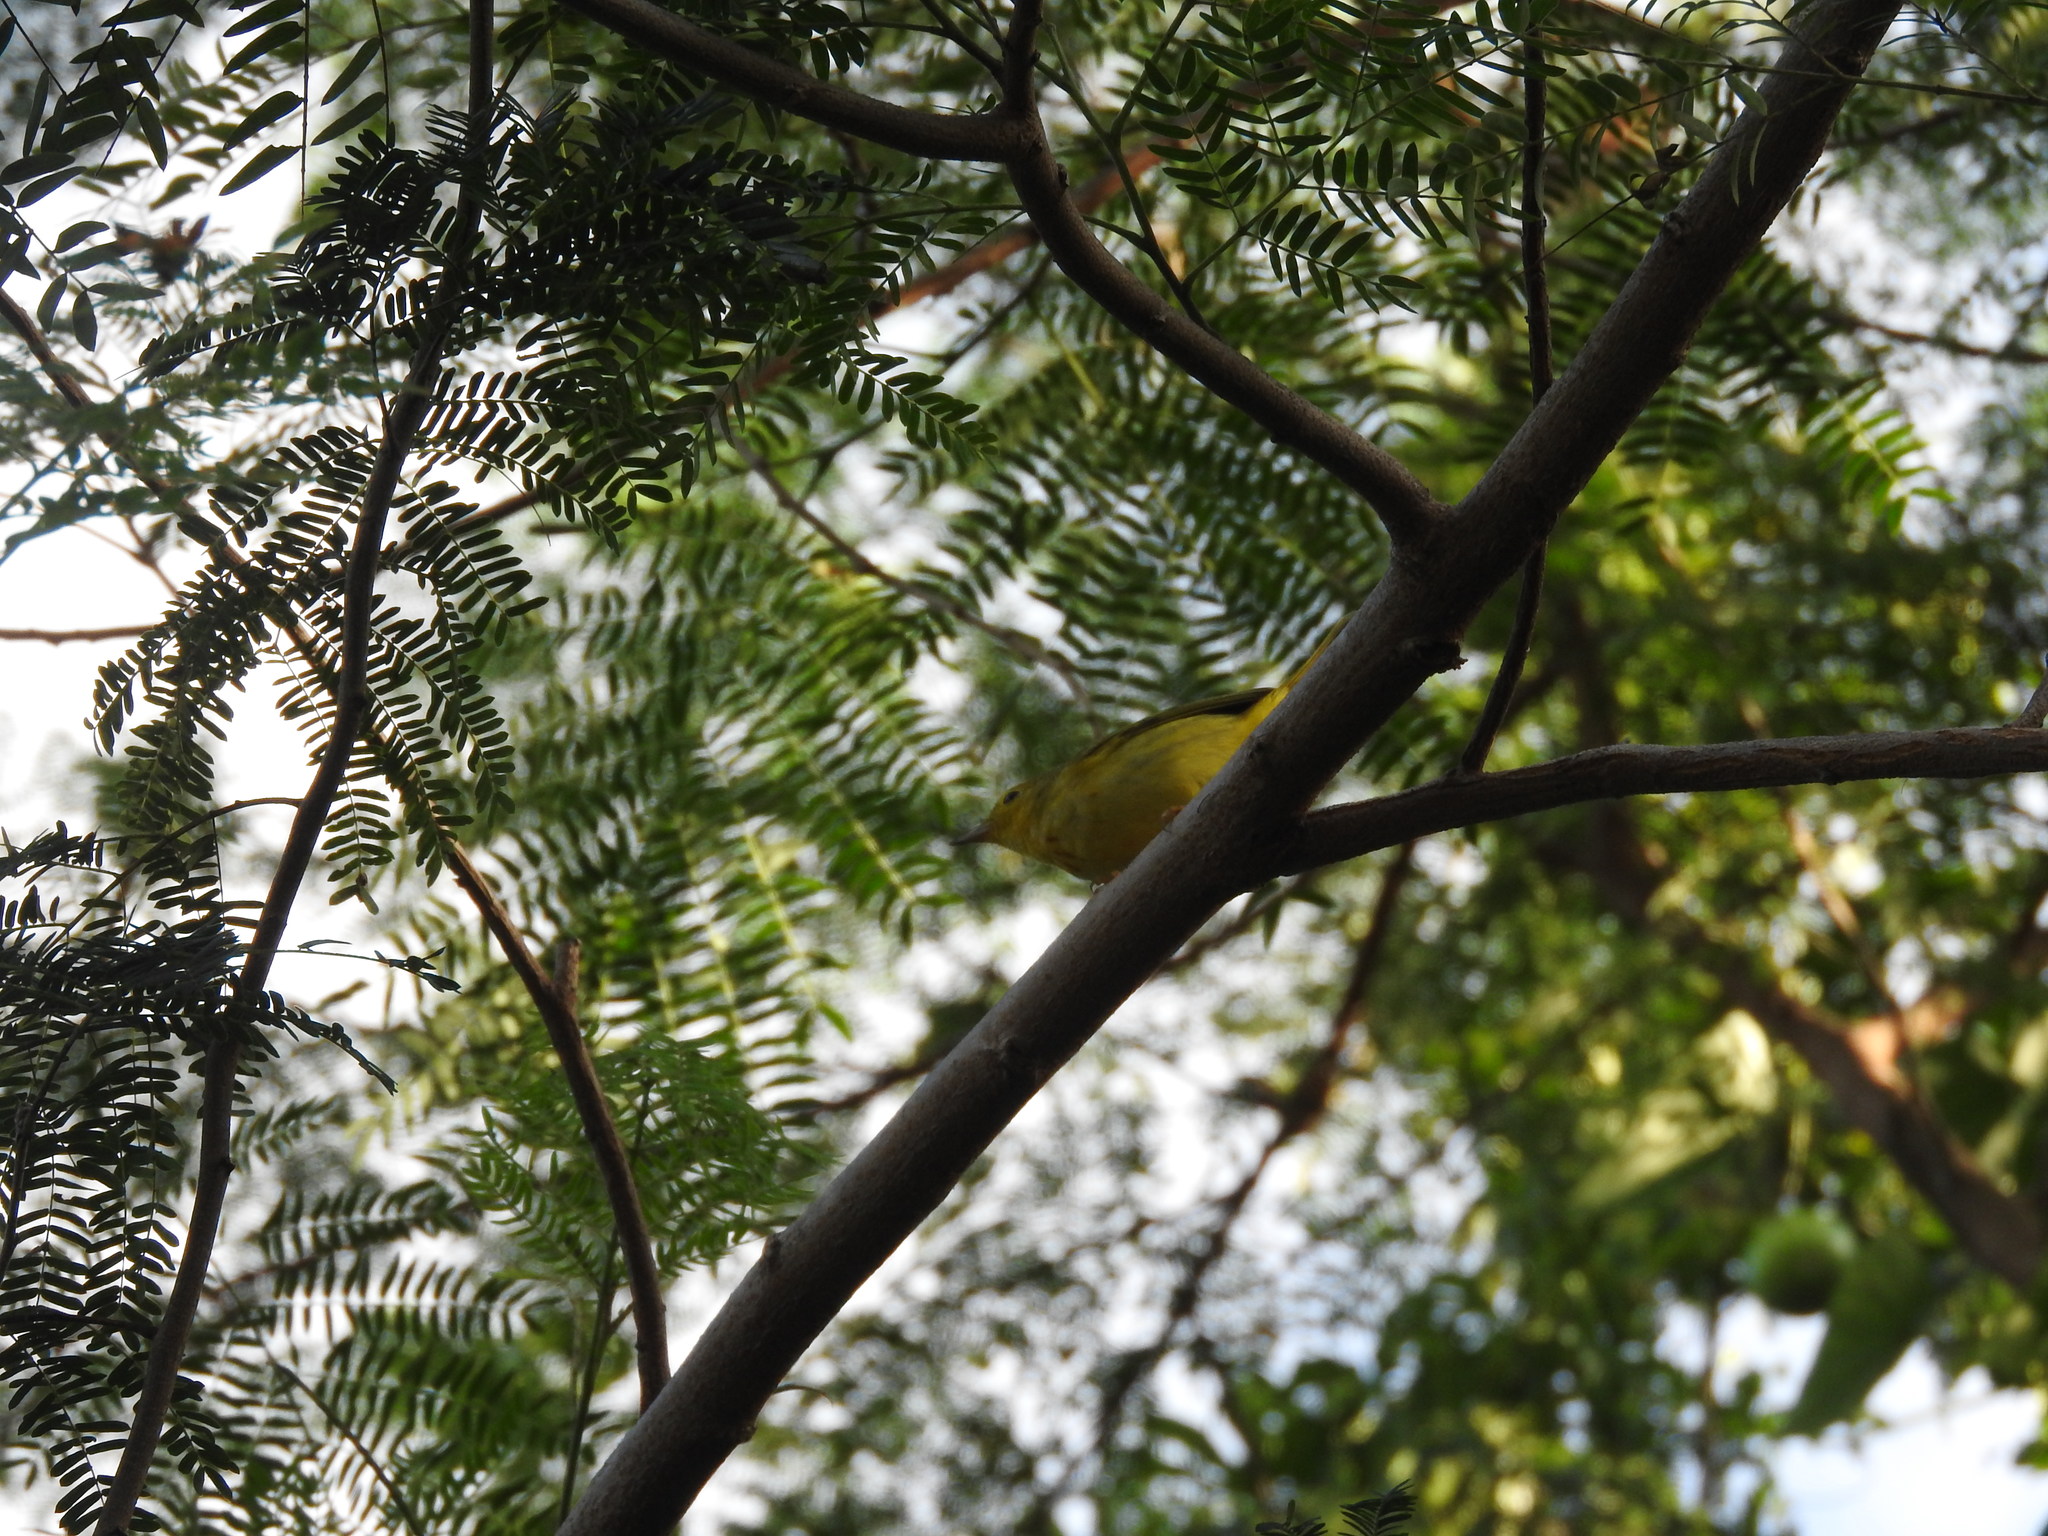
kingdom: Animalia
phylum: Chordata
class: Aves
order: Passeriformes
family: Parulidae
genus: Setophaga
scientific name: Setophaga petechia
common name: Yellow warbler
